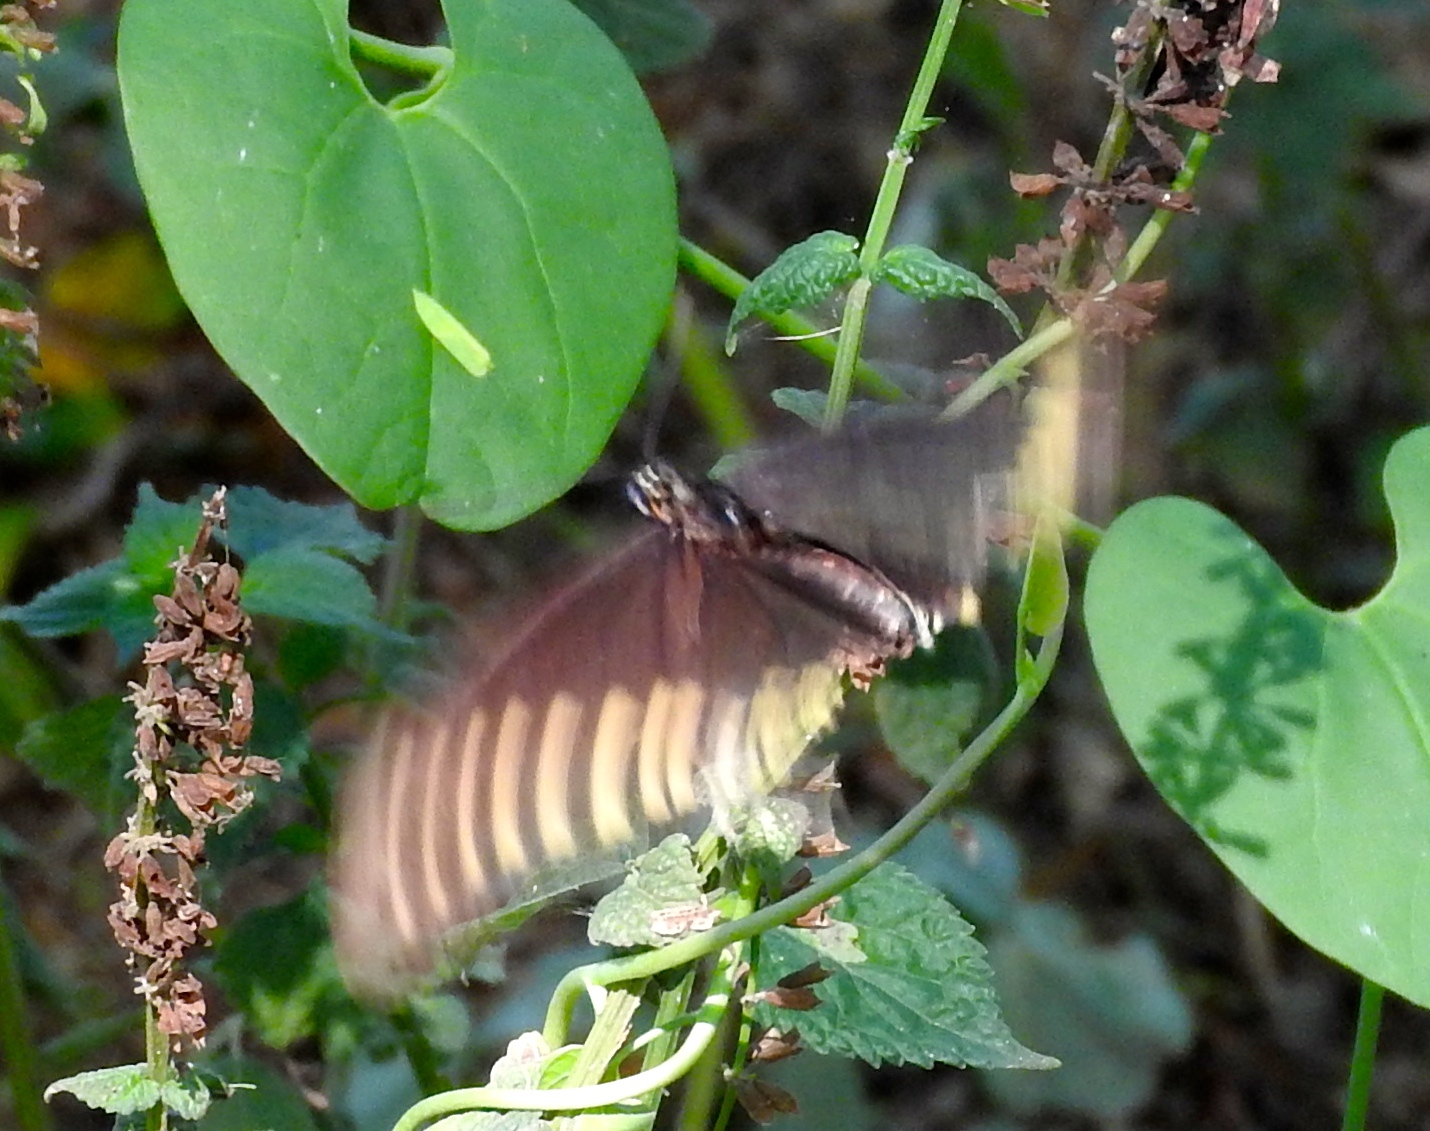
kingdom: Animalia
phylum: Arthropoda
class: Insecta
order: Lepidoptera
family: Papilionidae
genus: Battus
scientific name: Battus polydamas
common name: Polydamas swallowtail
